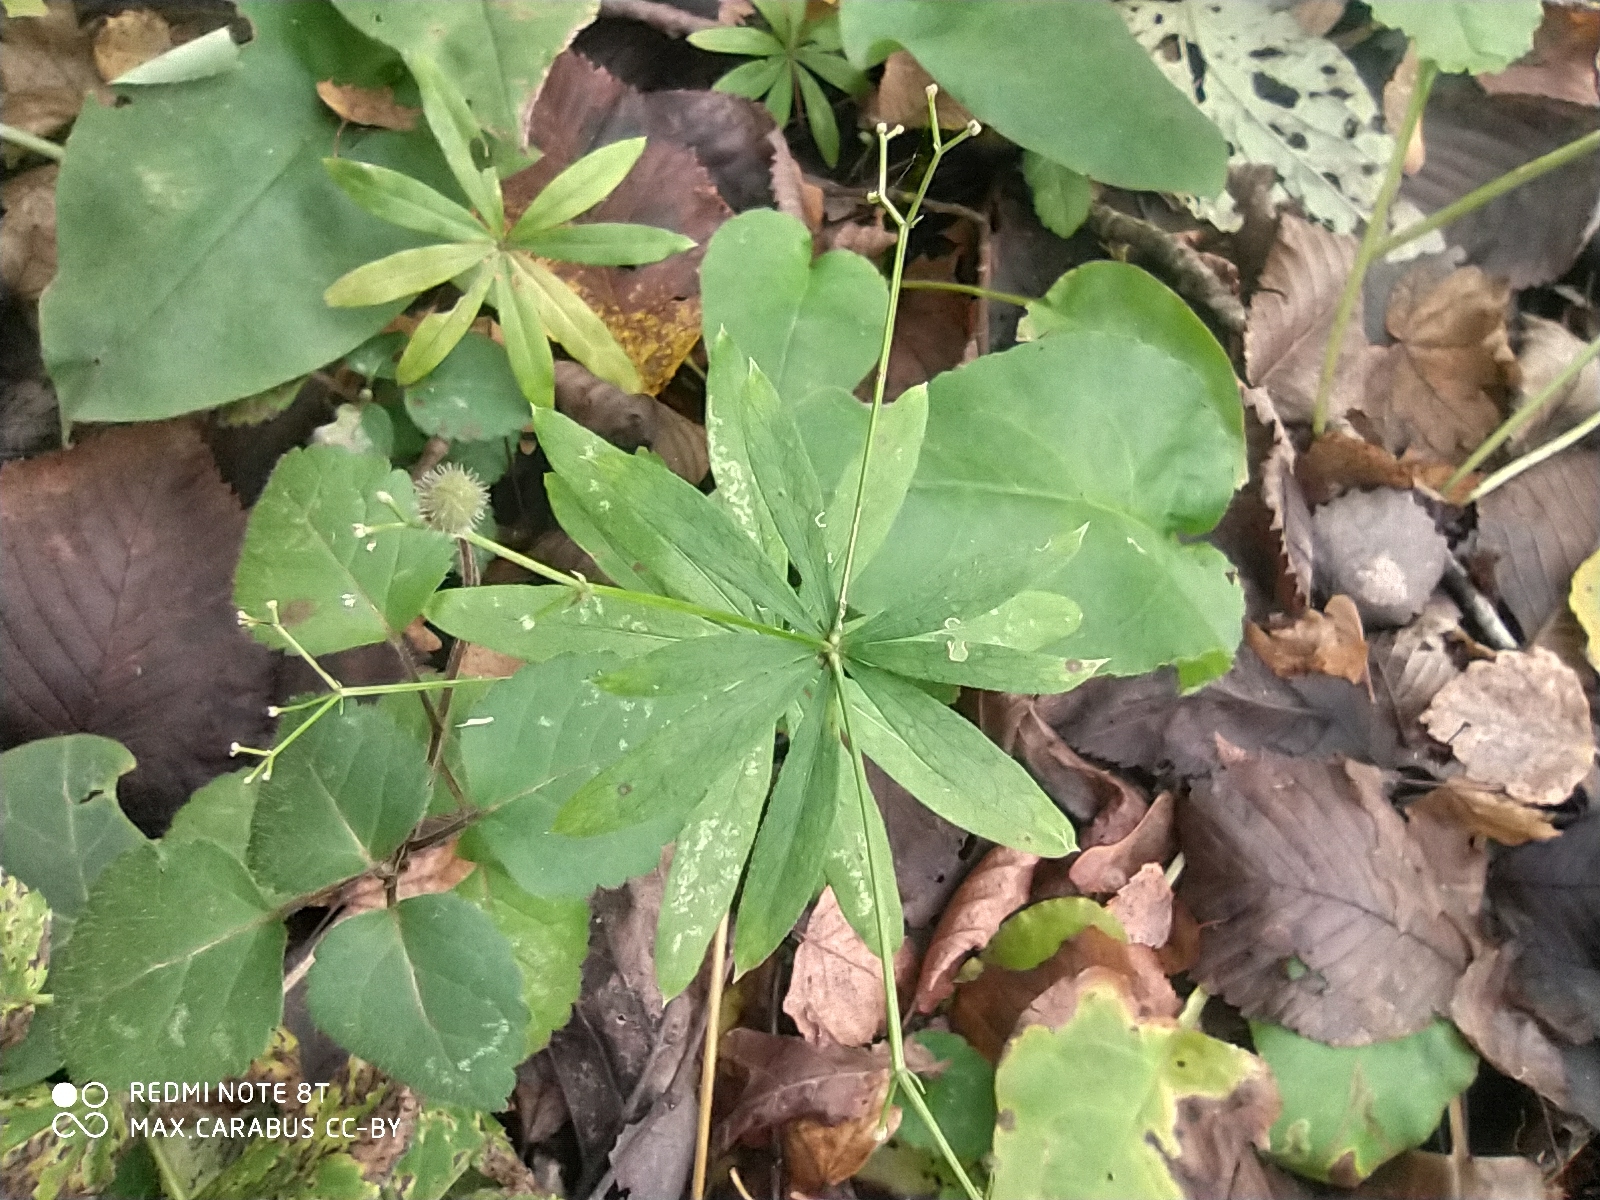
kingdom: Plantae
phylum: Tracheophyta
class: Magnoliopsida
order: Gentianales
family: Rubiaceae
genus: Galium
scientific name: Galium odoratum
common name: Sweet woodruff
